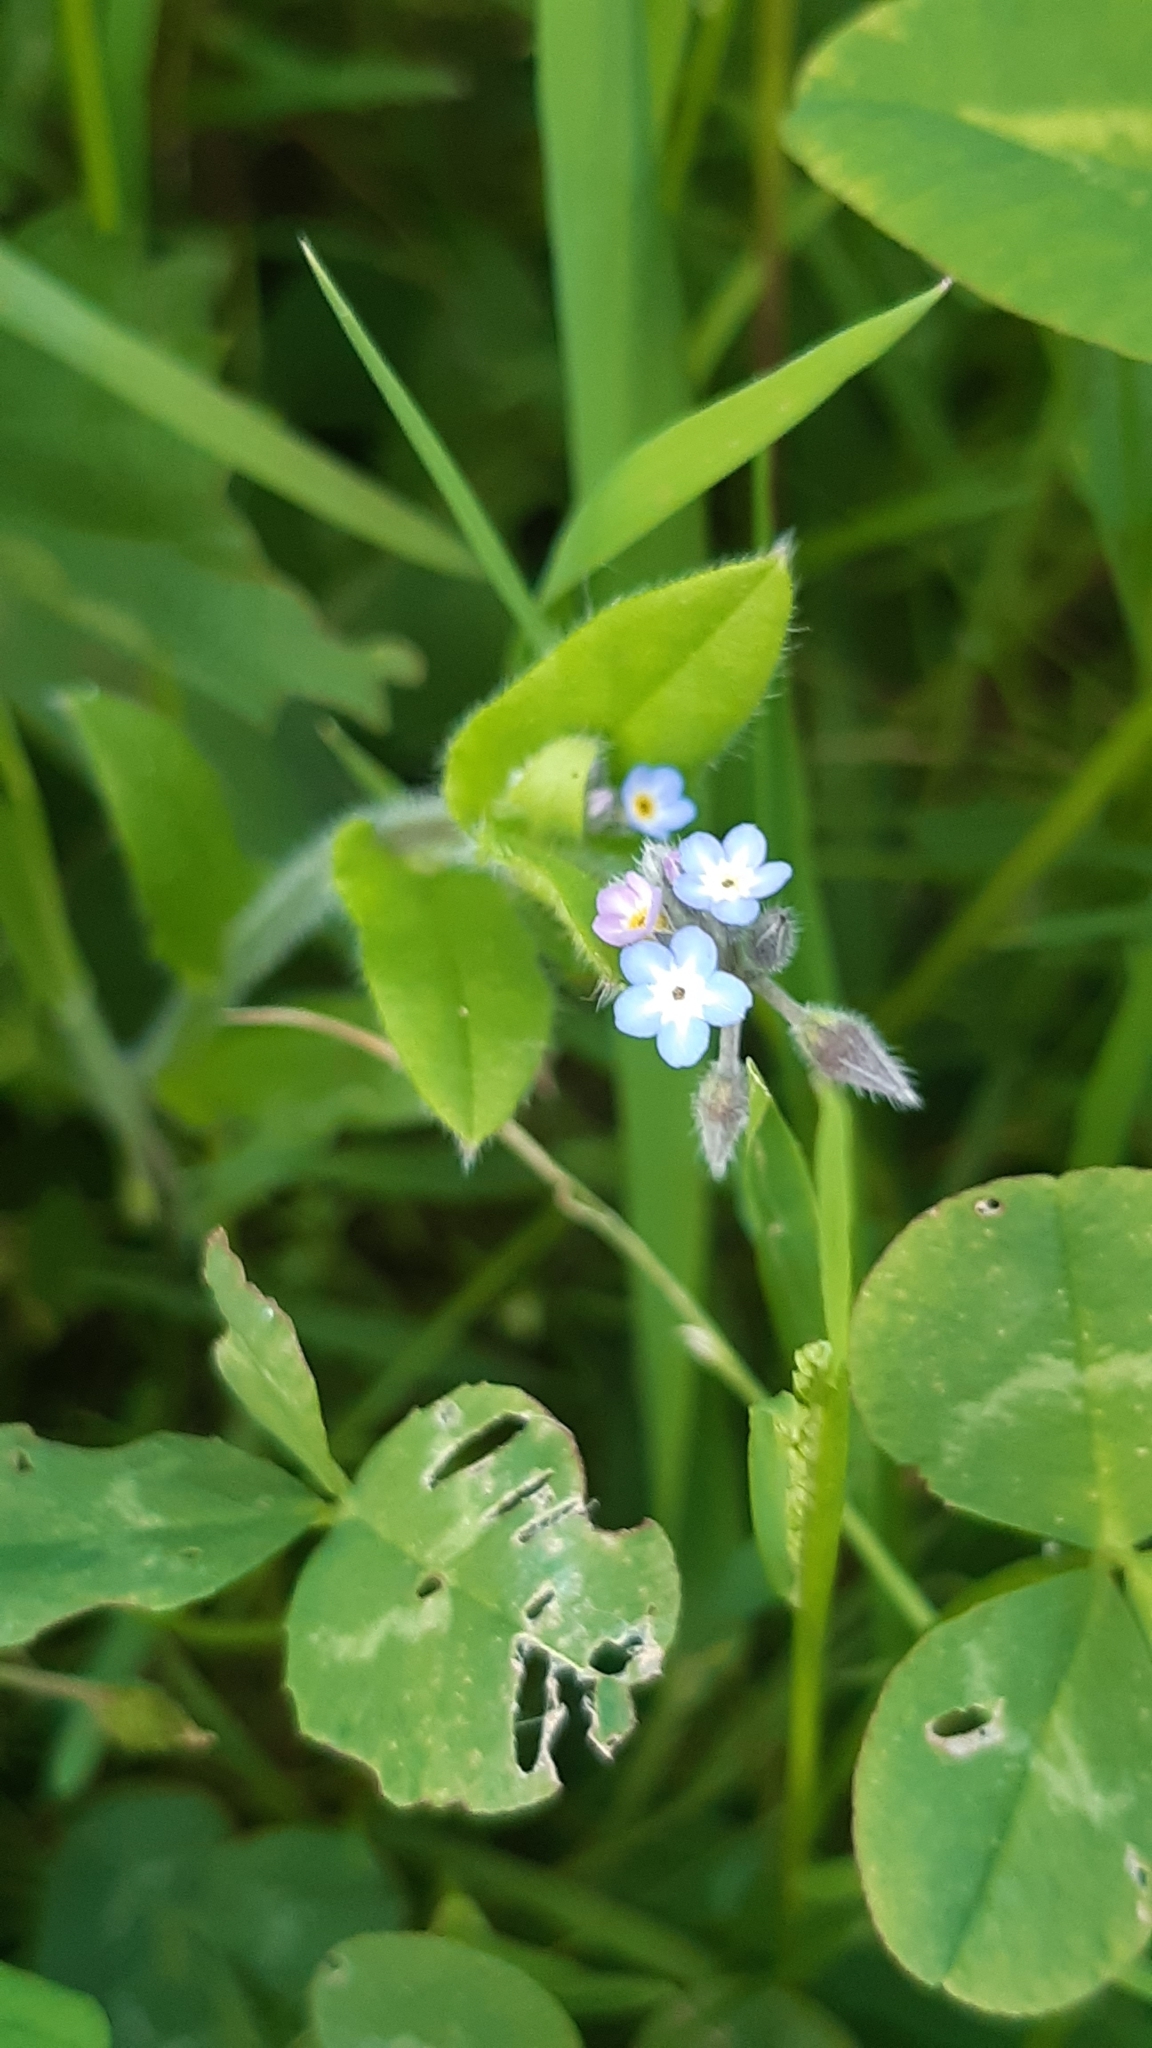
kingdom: Plantae
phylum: Tracheophyta
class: Magnoliopsida
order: Boraginales
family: Boraginaceae
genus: Myosotis
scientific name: Myosotis arvensis
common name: Field forget-me-not
